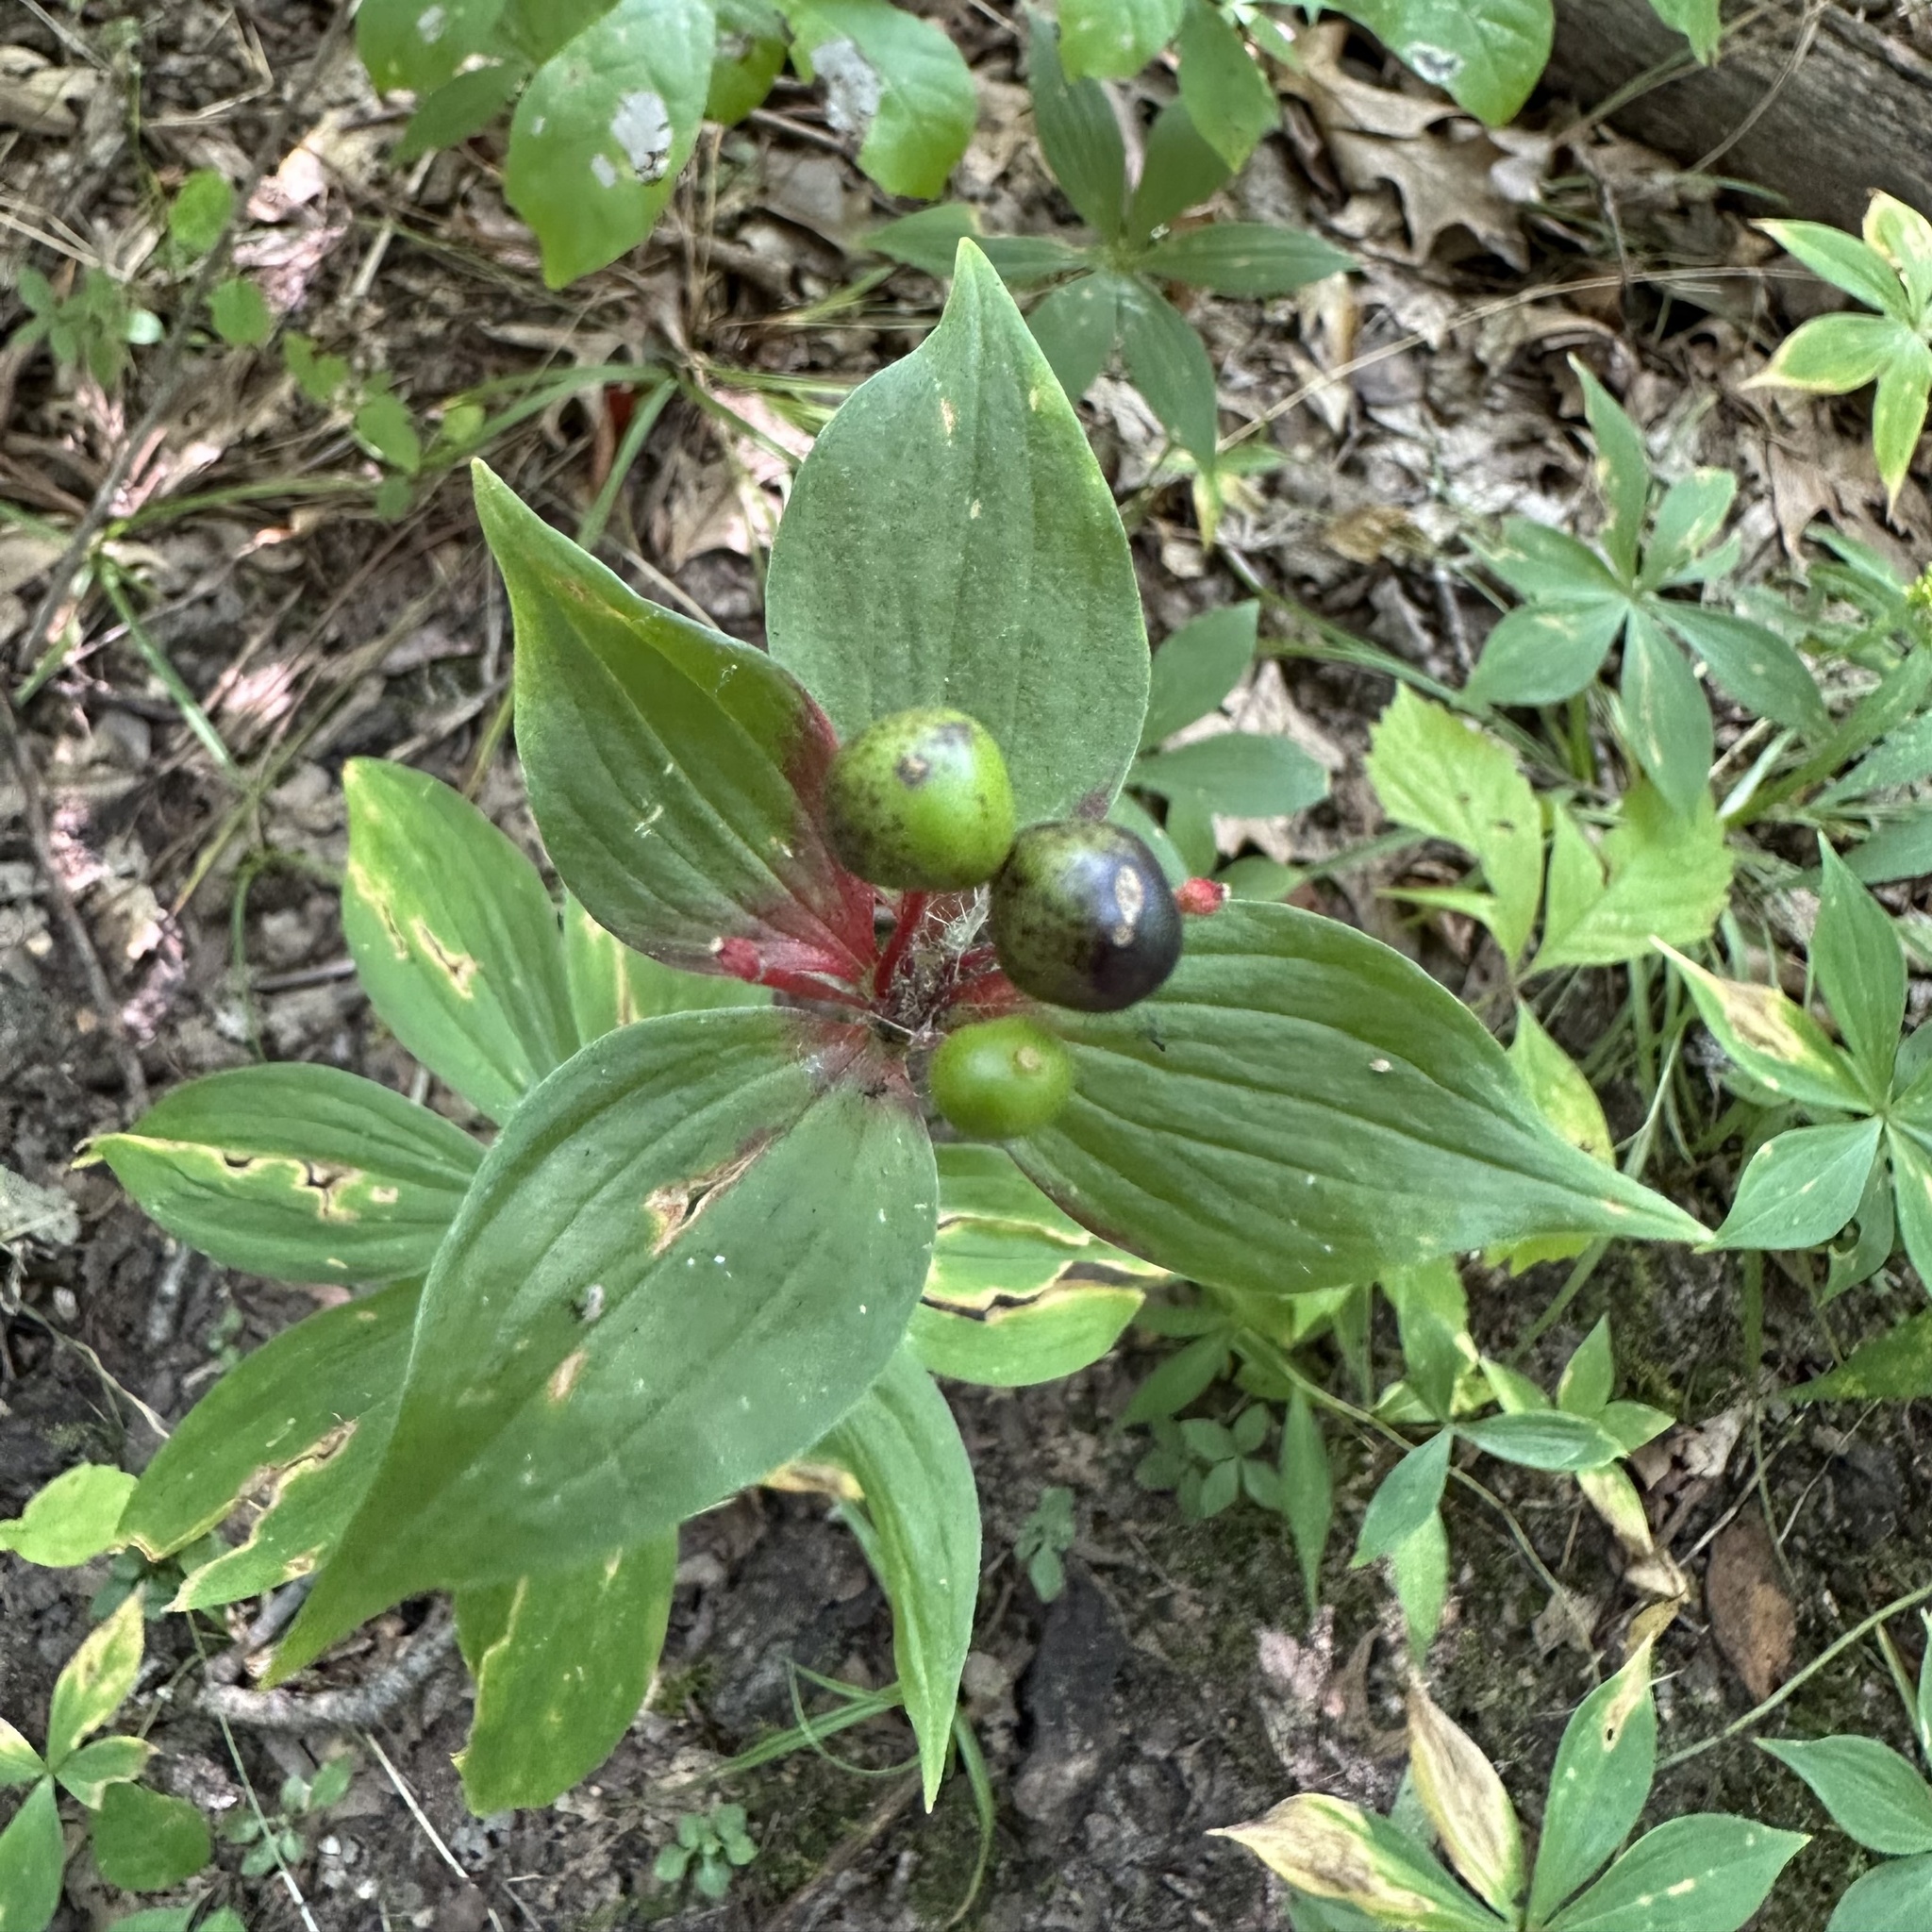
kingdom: Plantae
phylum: Tracheophyta
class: Liliopsida
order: Liliales
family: Liliaceae
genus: Medeola
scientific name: Medeola virginiana
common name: Indian cucumber-root
